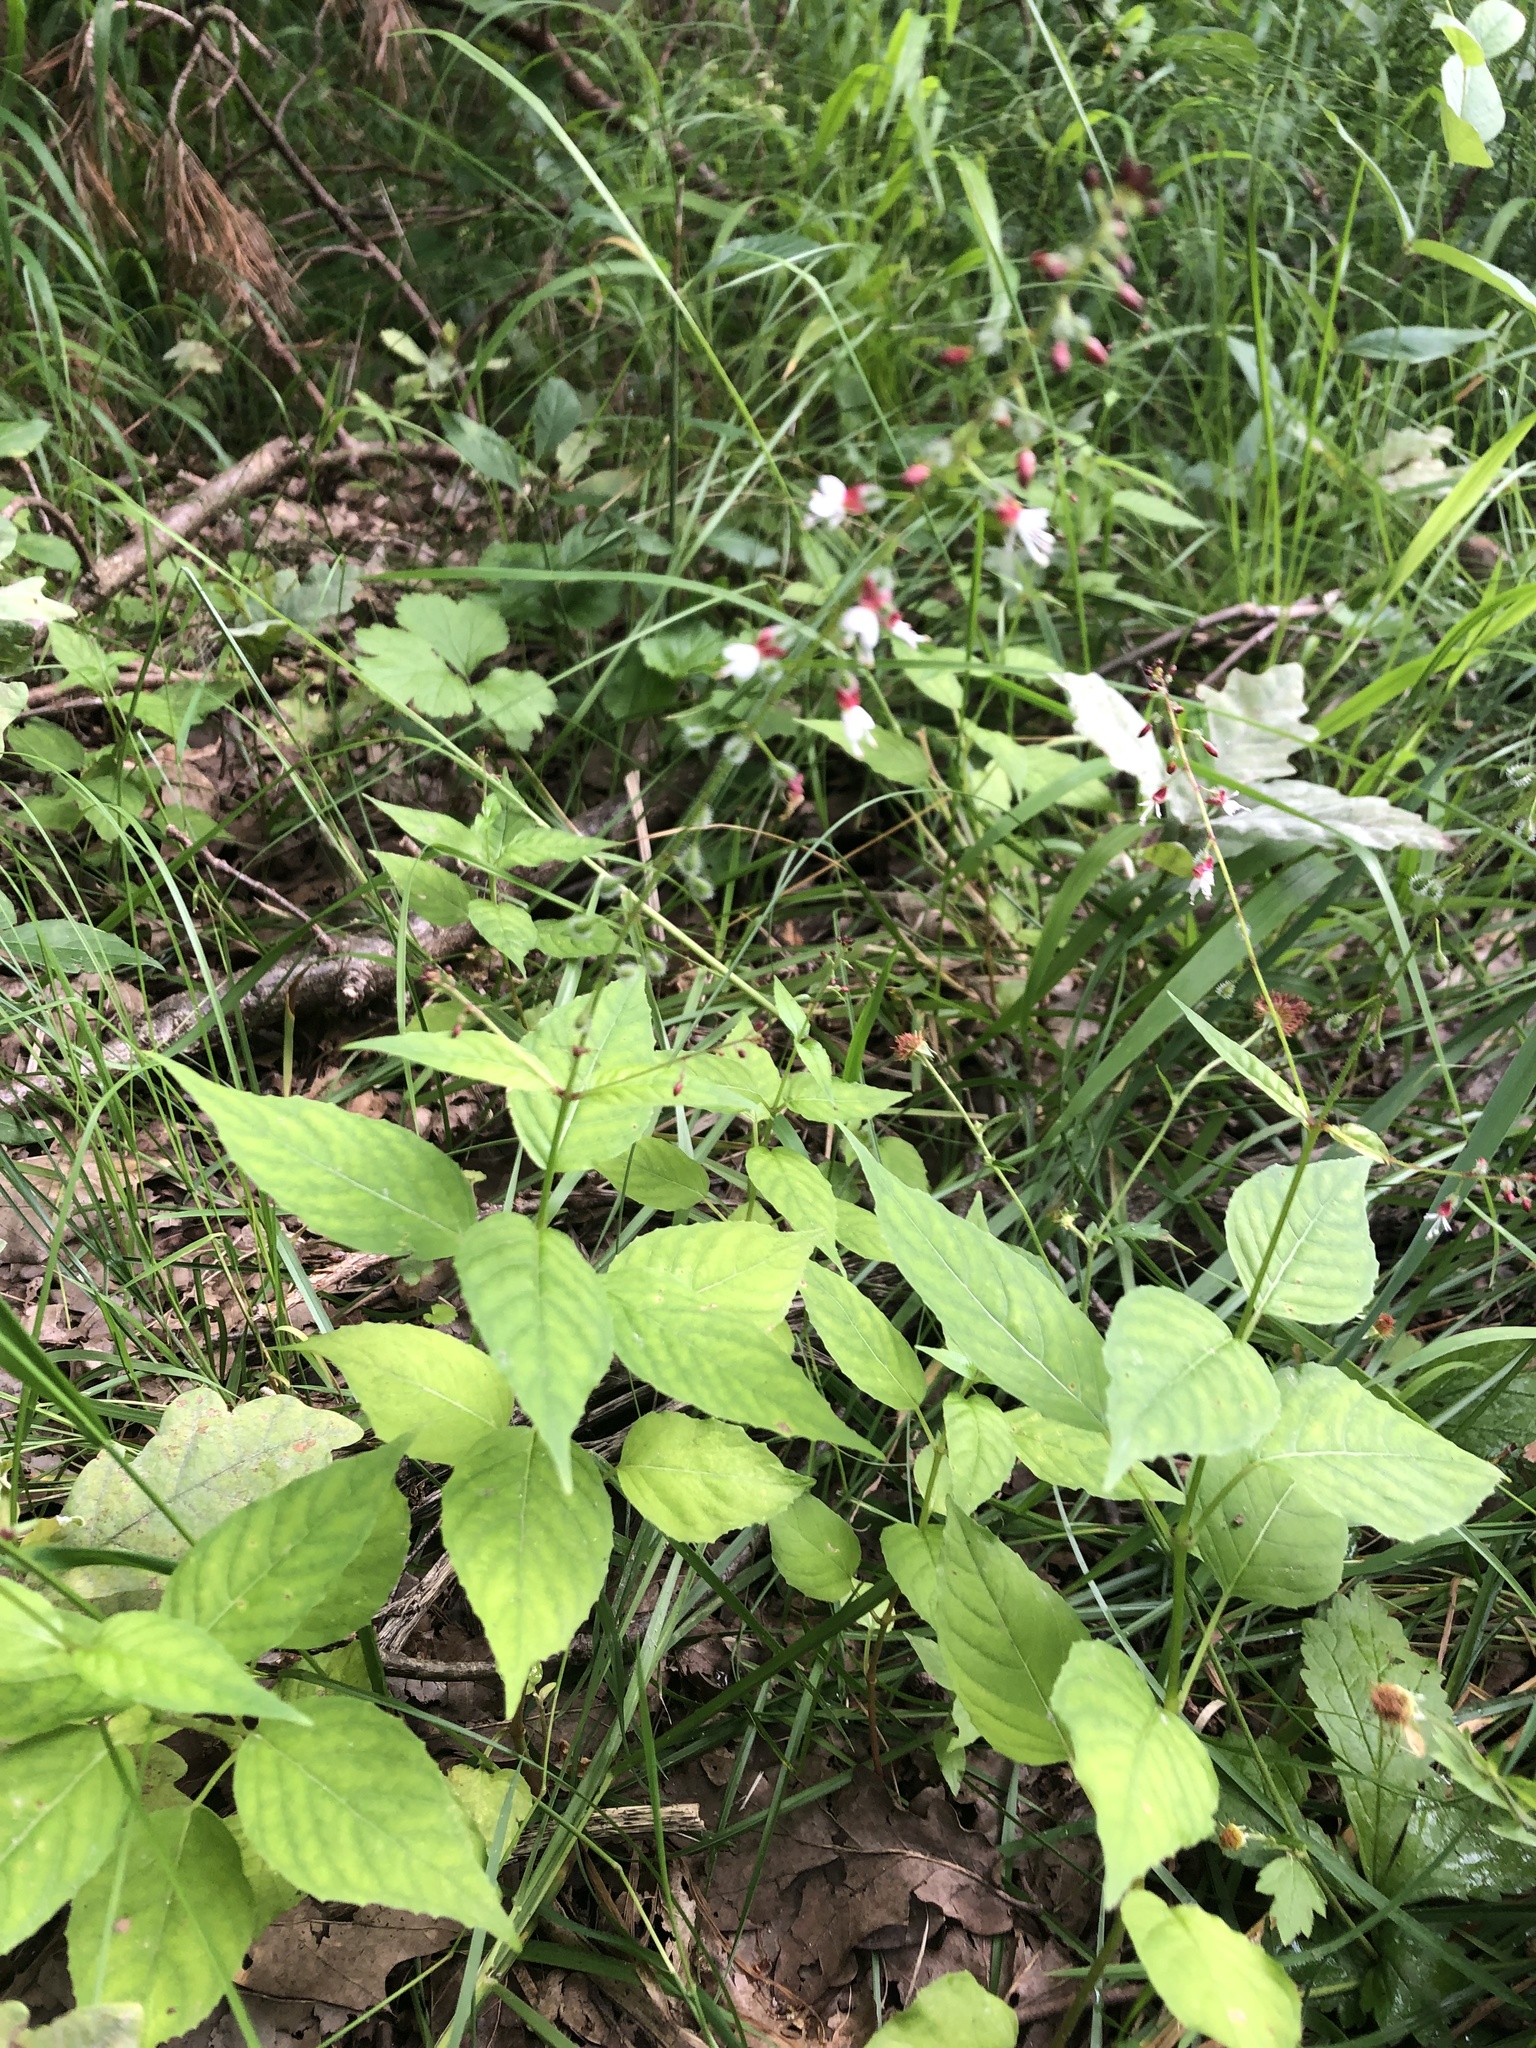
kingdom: Plantae
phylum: Tracheophyta
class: Magnoliopsida
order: Myrtales
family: Onagraceae
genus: Circaea
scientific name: Circaea lutetiana
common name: Enchanter's-nightshade
